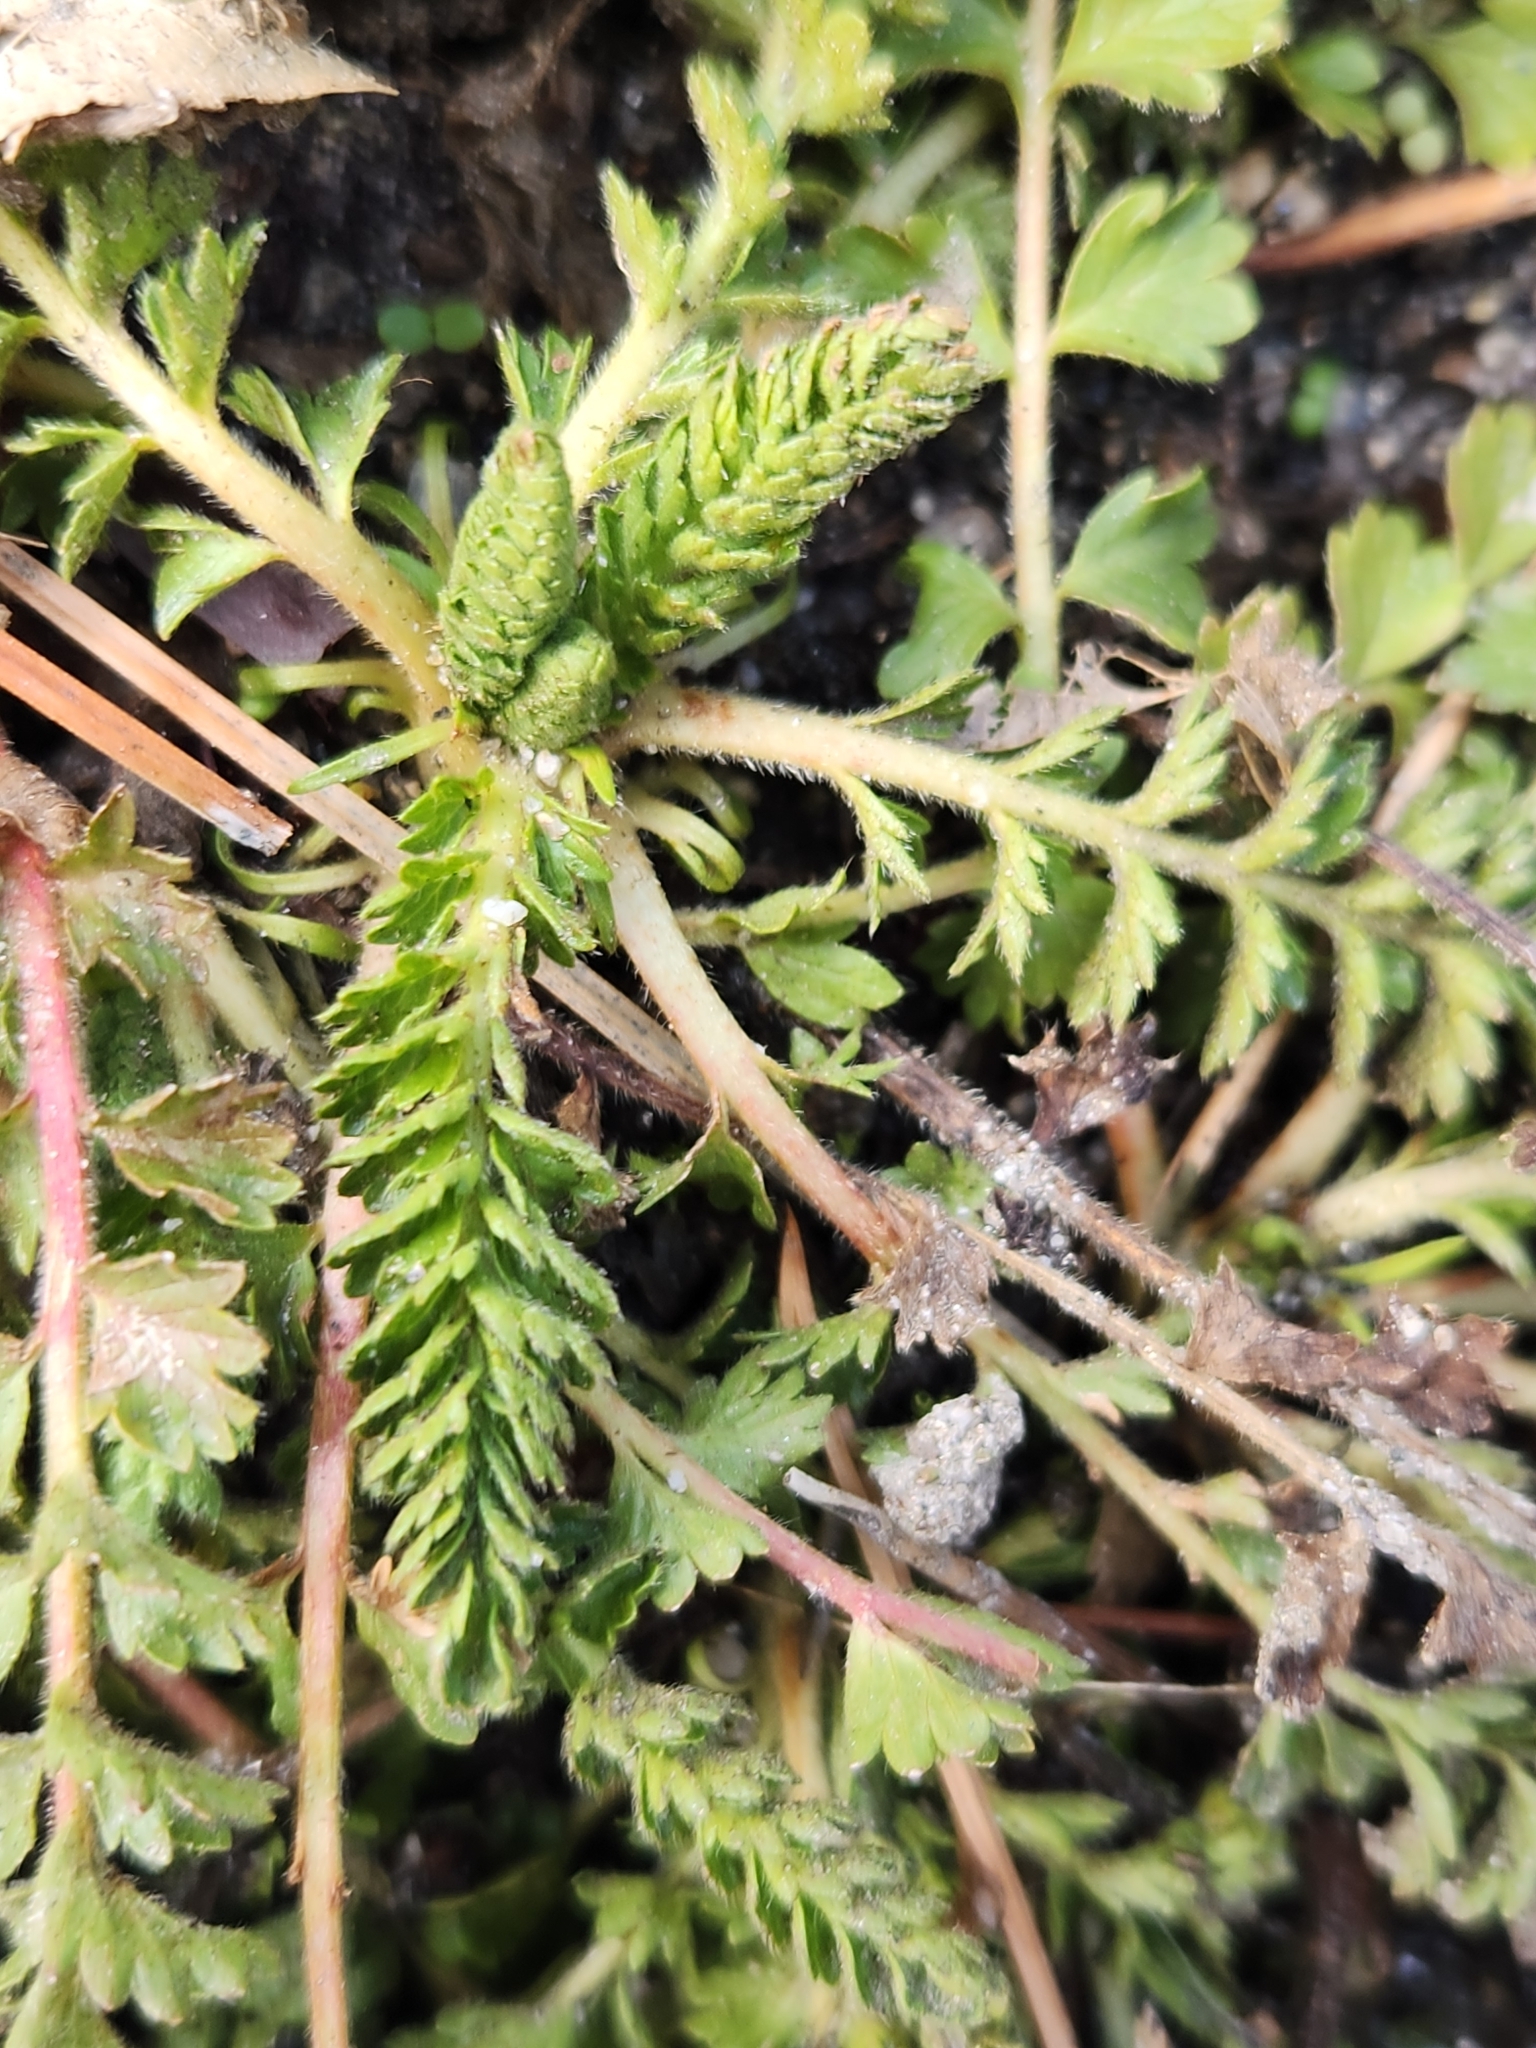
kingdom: Plantae
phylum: Tracheophyta
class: Magnoliopsida
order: Rosales
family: Rosaceae
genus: Potentilla
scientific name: Potentilla clevelandii
